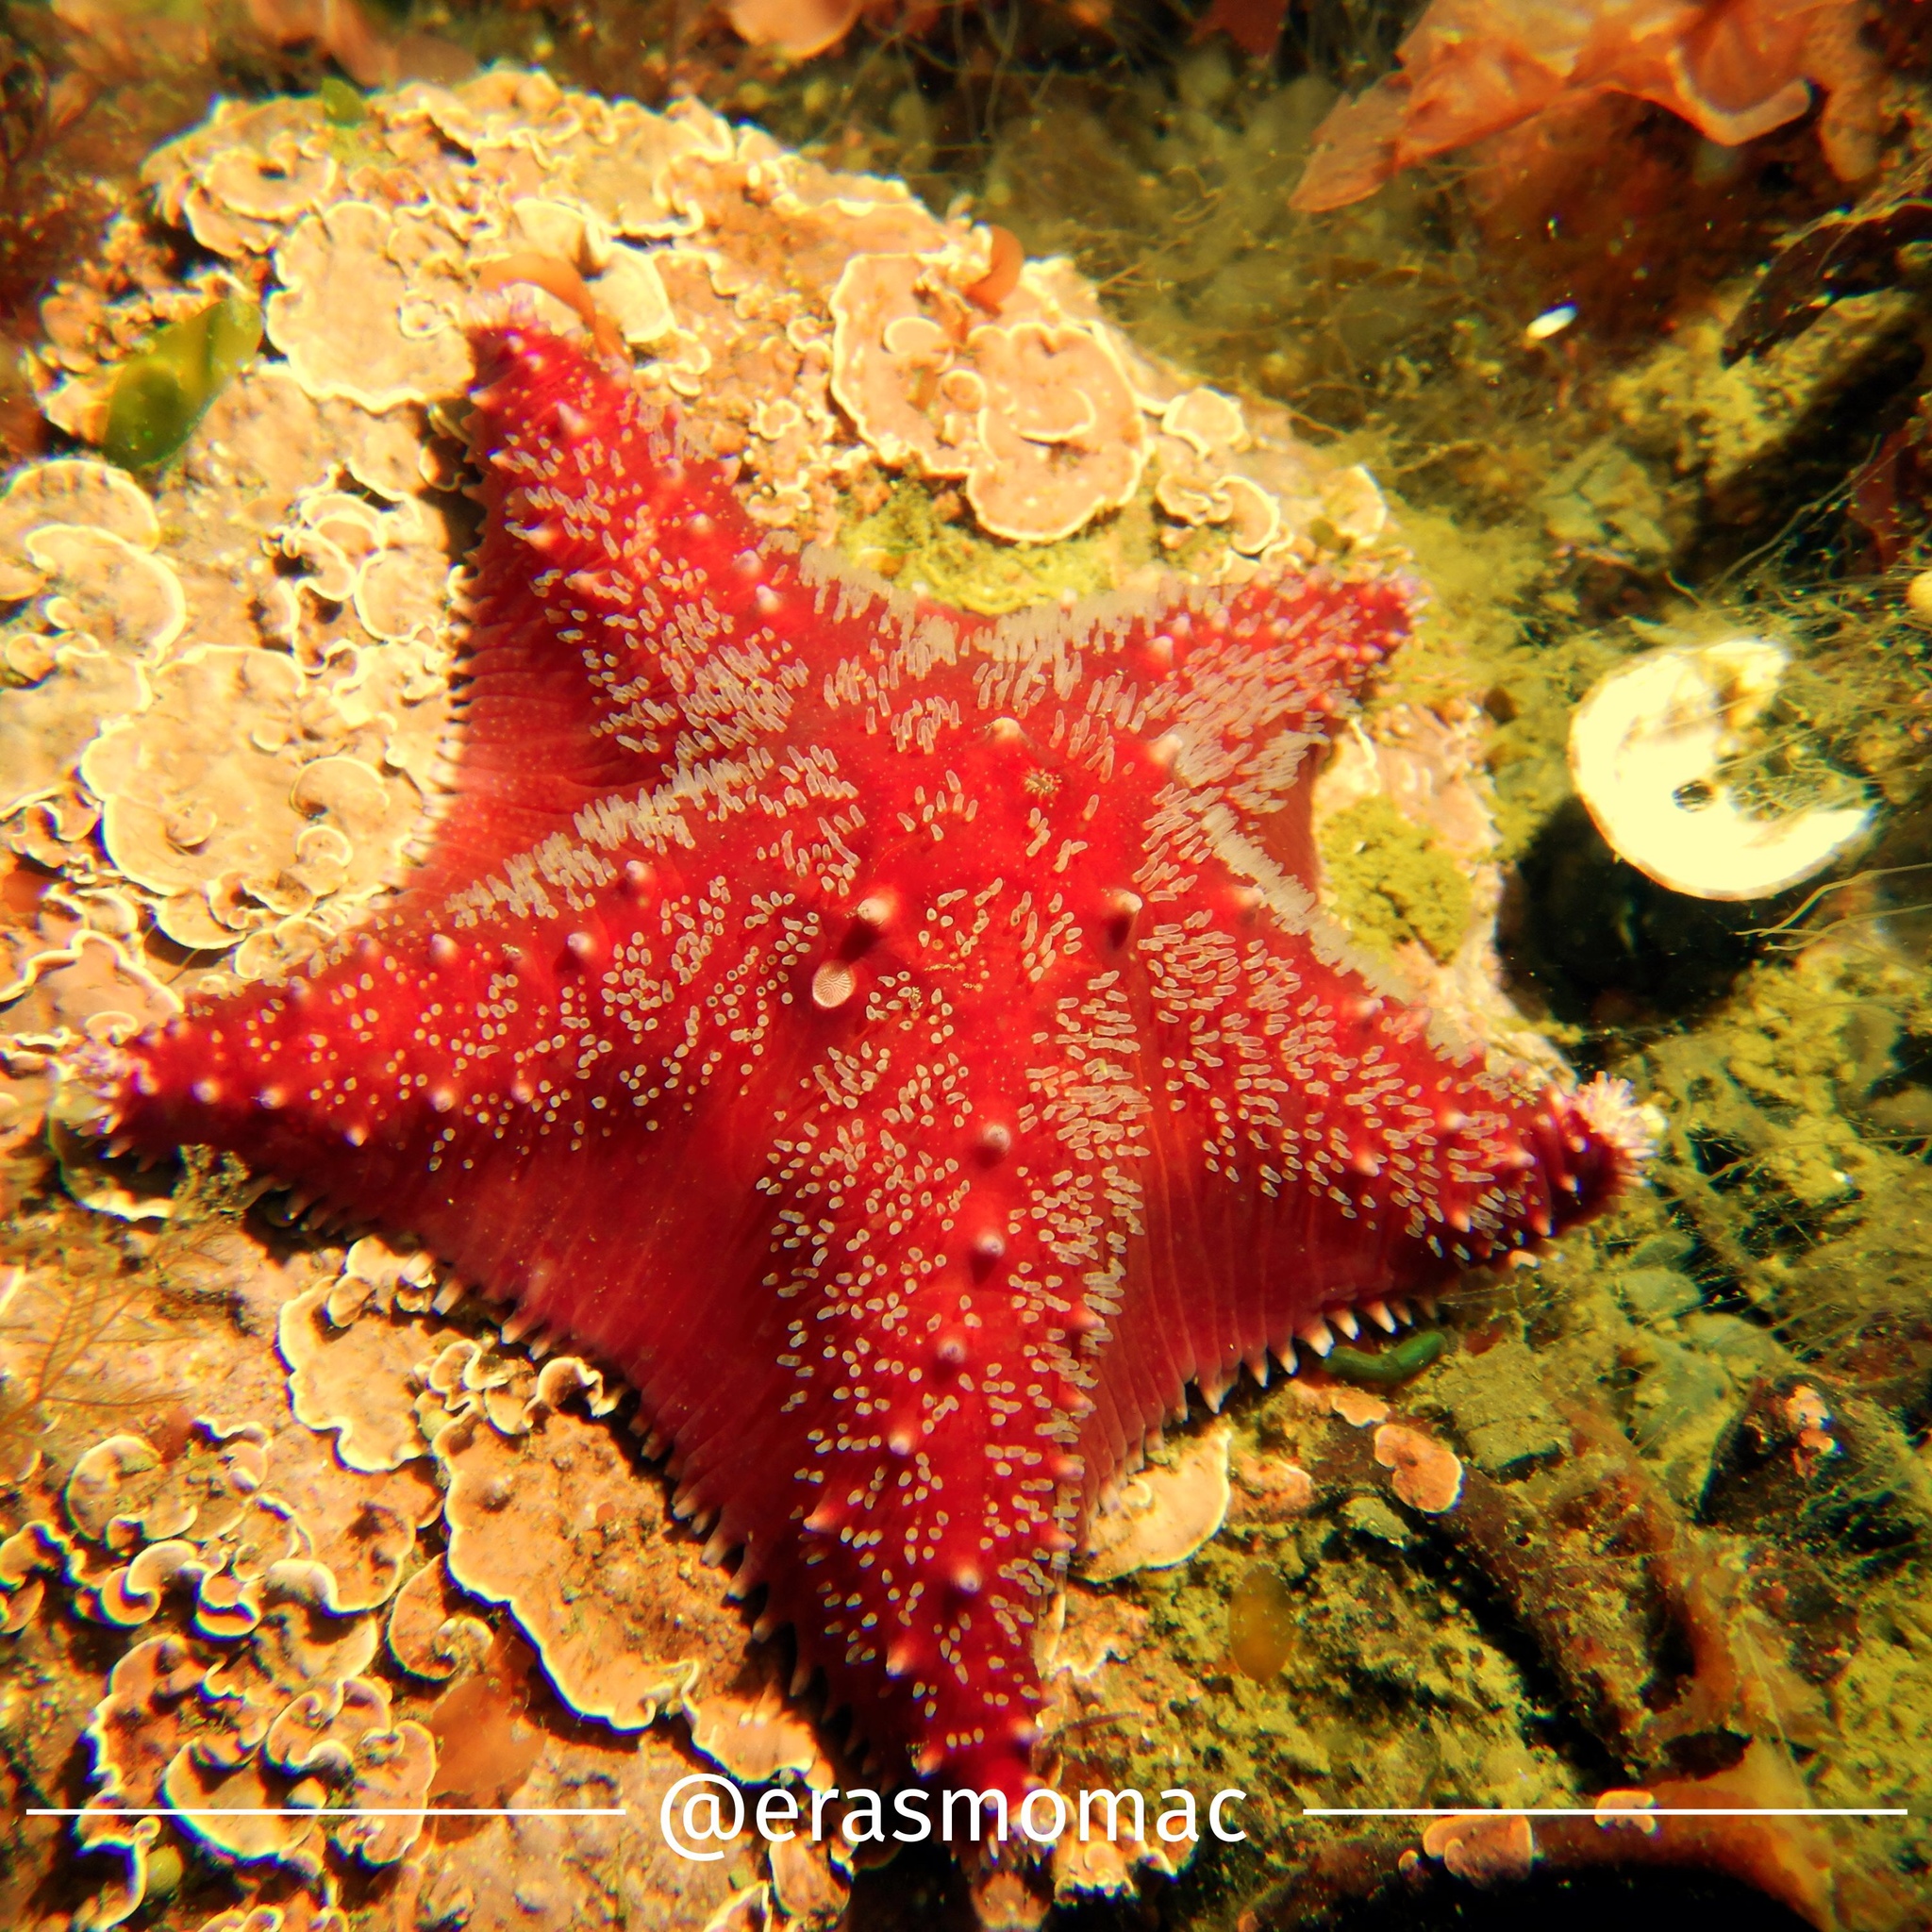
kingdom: Animalia
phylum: Echinodermata
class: Asteroidea
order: Valvatida
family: Poraniidae
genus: Glabraster
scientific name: Glabraster antarctica
